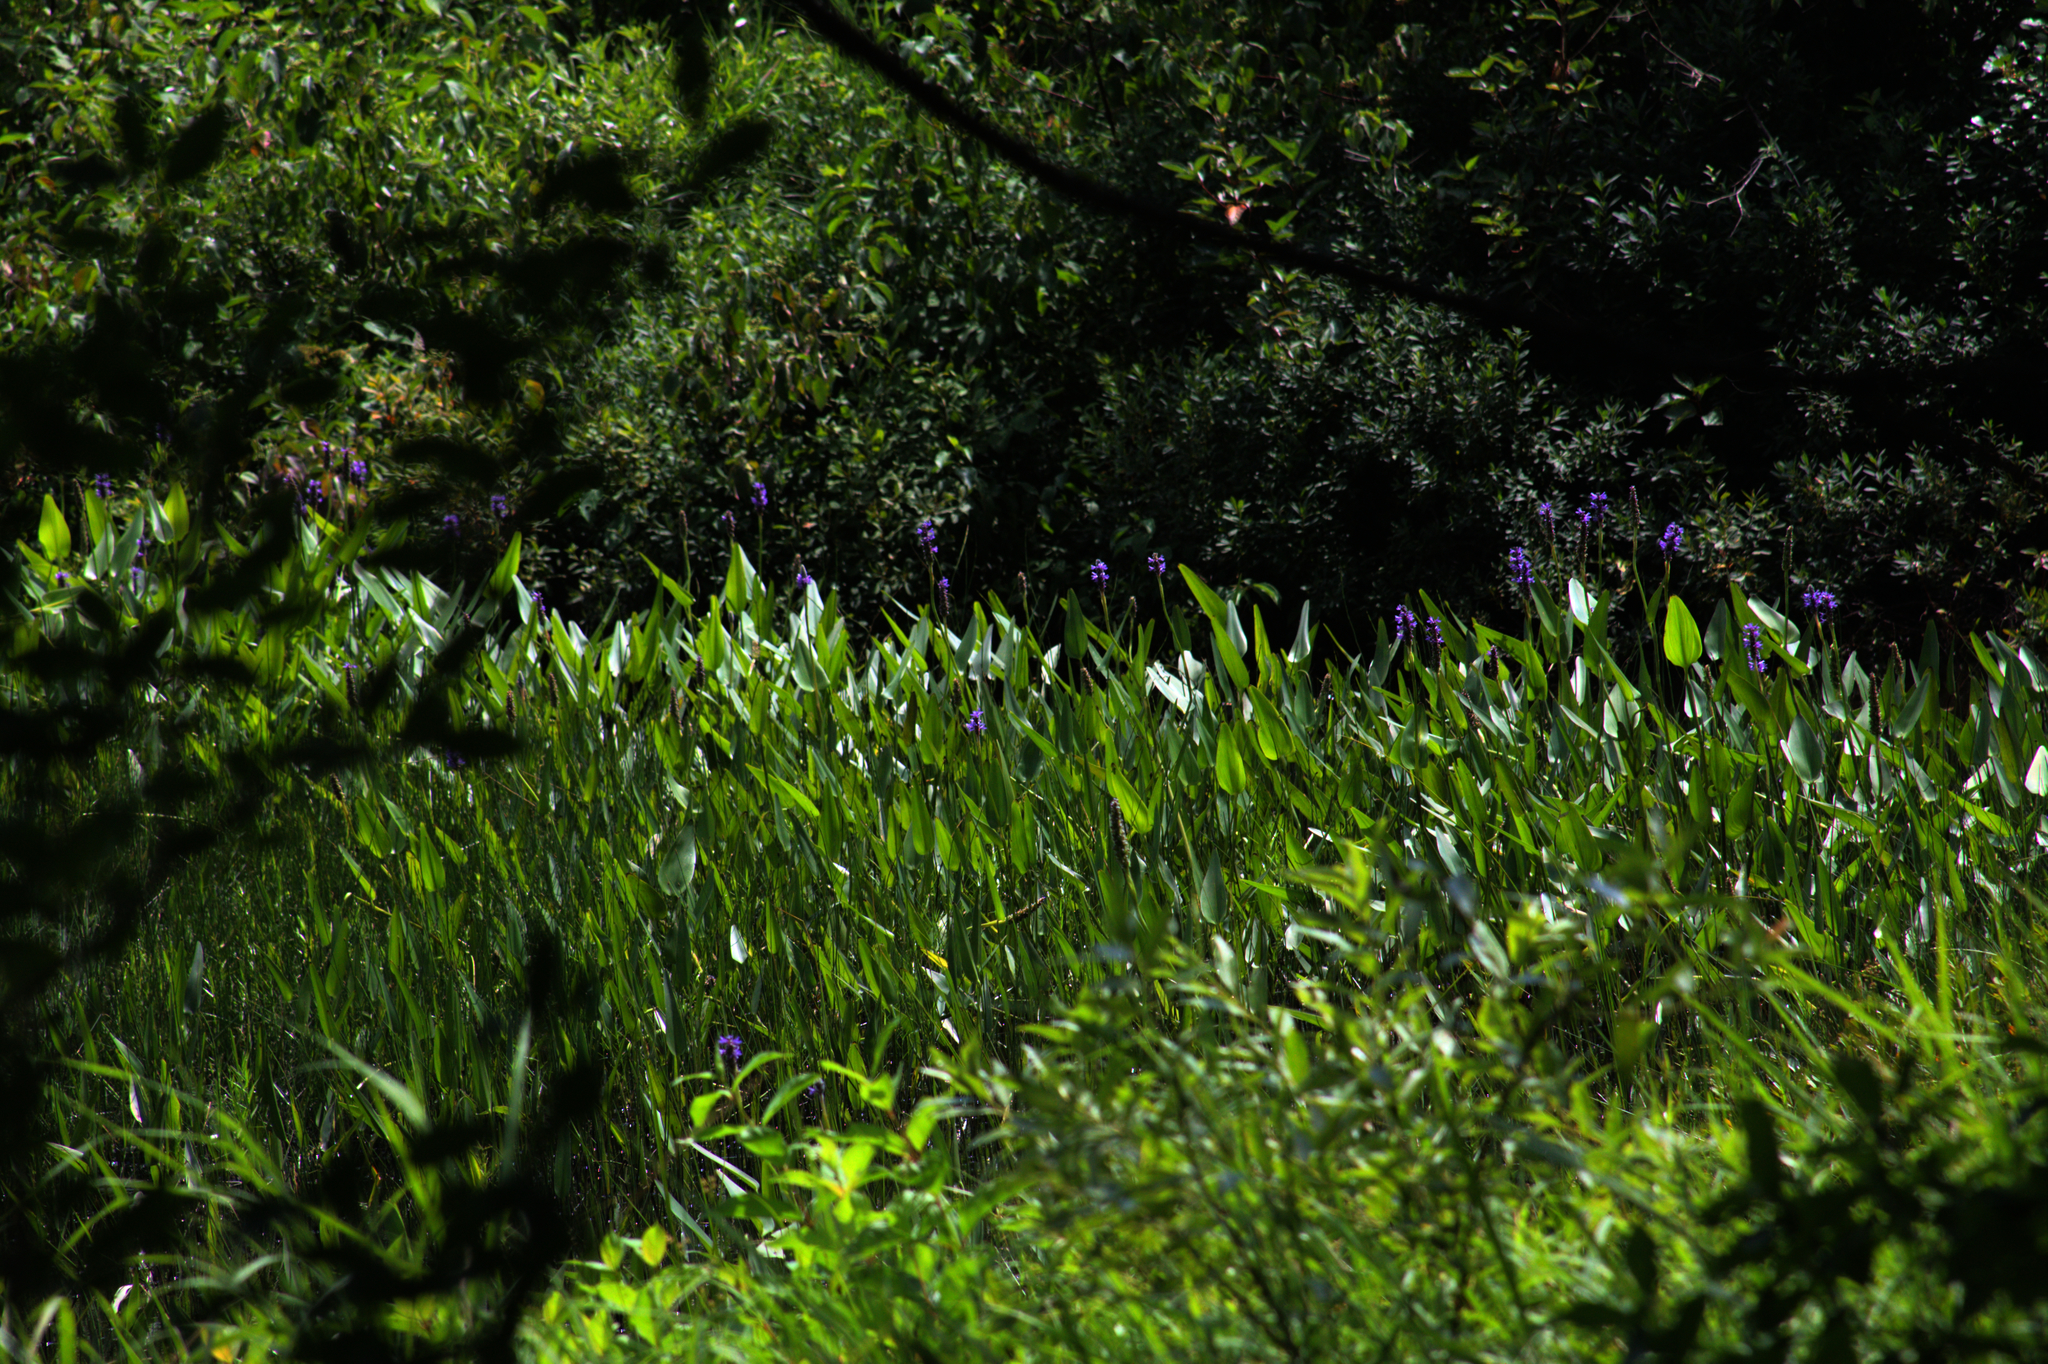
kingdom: Plantae
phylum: Tracheophyta
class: Liliopsida
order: Commelinales
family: Pontederiaceae
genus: Pontederia
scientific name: Pontederia cordata
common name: Pickerelweed
